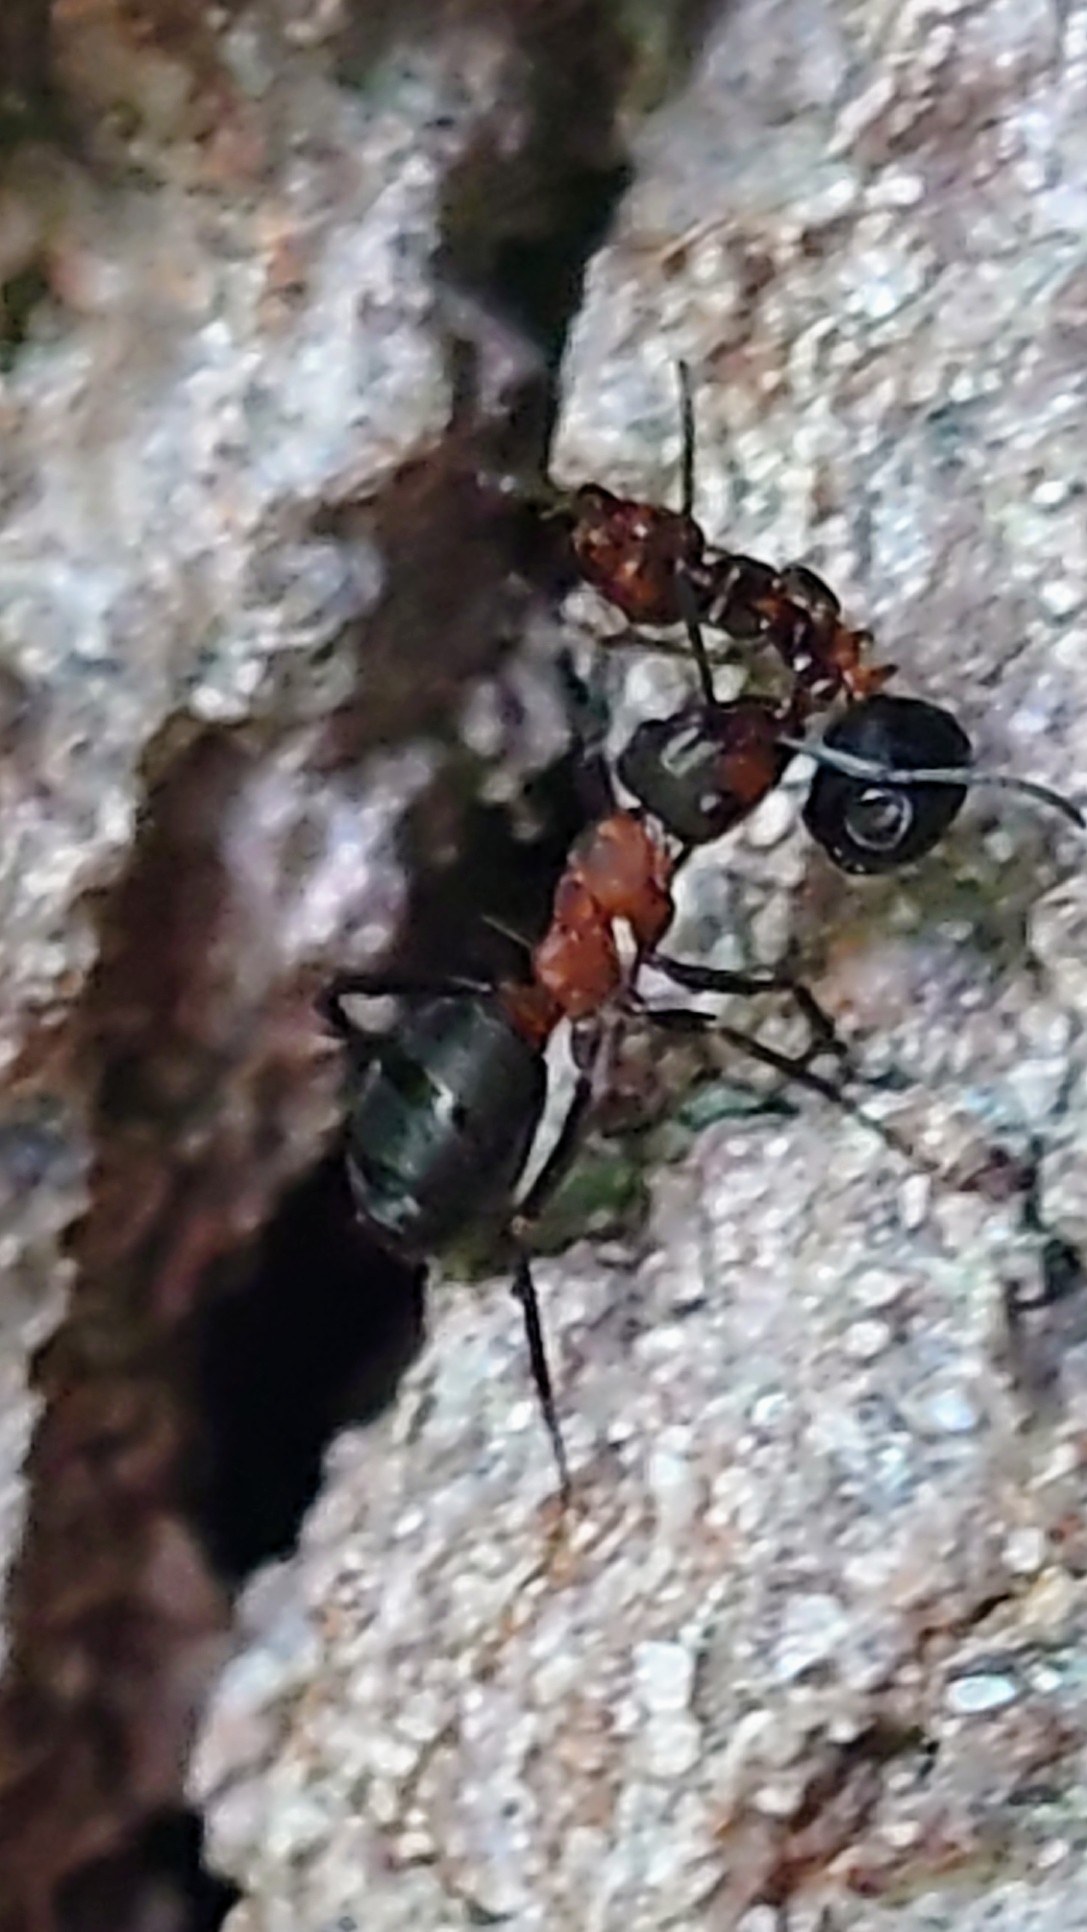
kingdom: Animalia
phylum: Arthropoda
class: Insecta
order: Hymenoptera
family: Formicidae
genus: Formica
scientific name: Formica
